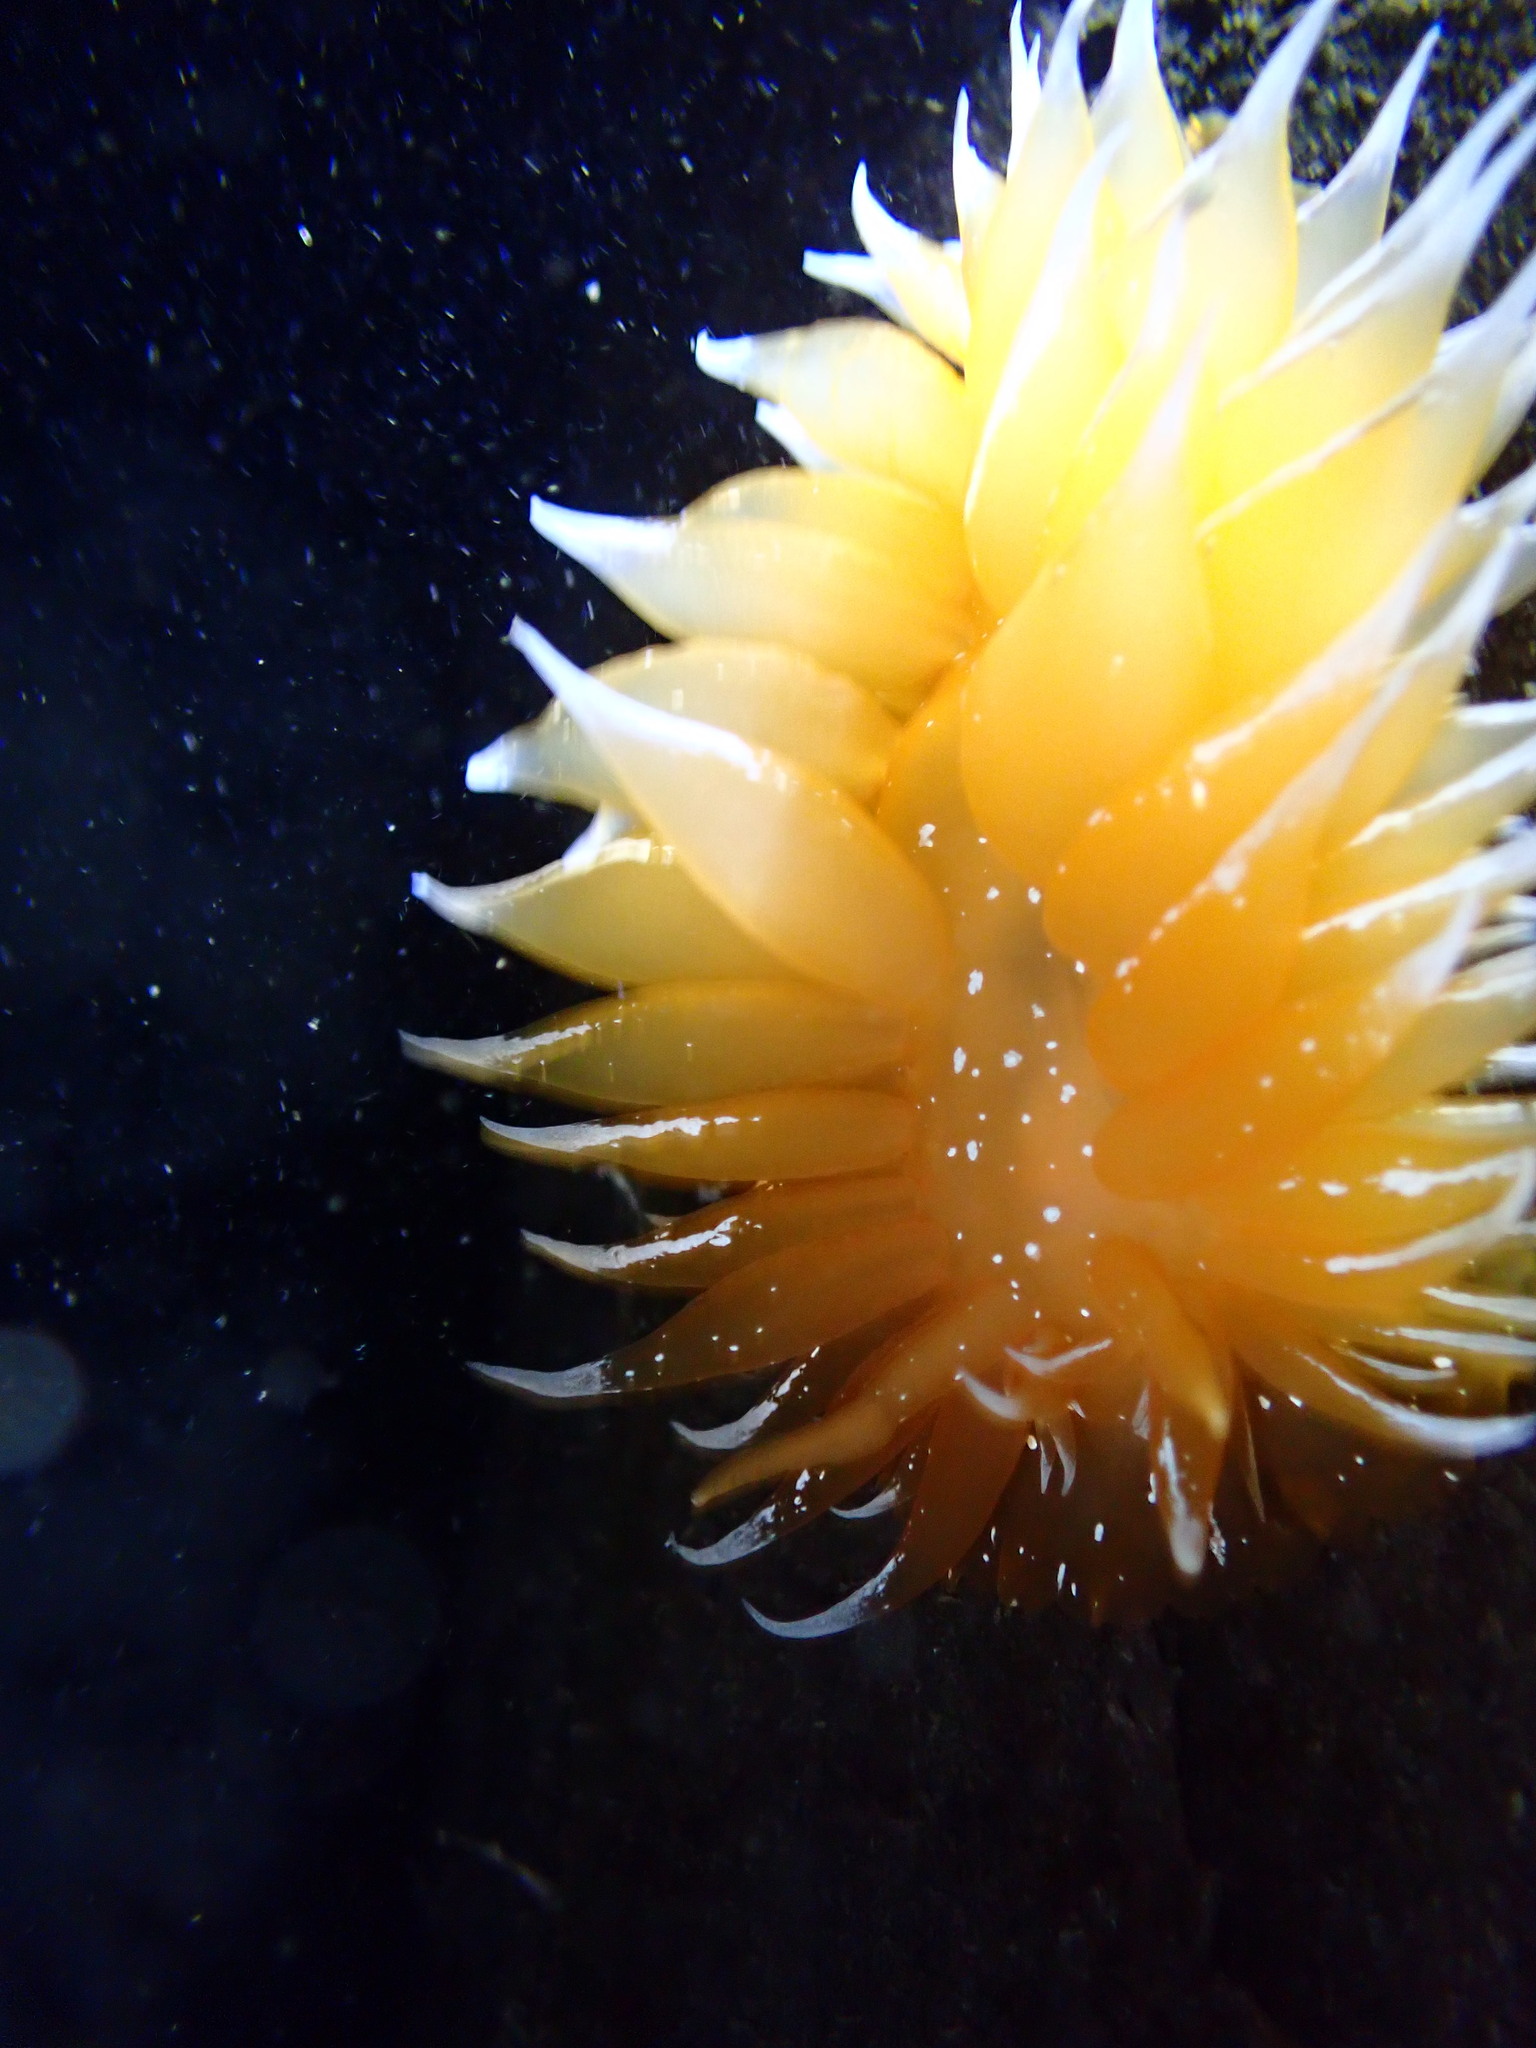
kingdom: Animalia
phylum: Mollusca
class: Gastropoda
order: Nudibranchia
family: Dironidae
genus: Dirona
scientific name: Dirona pellucida
